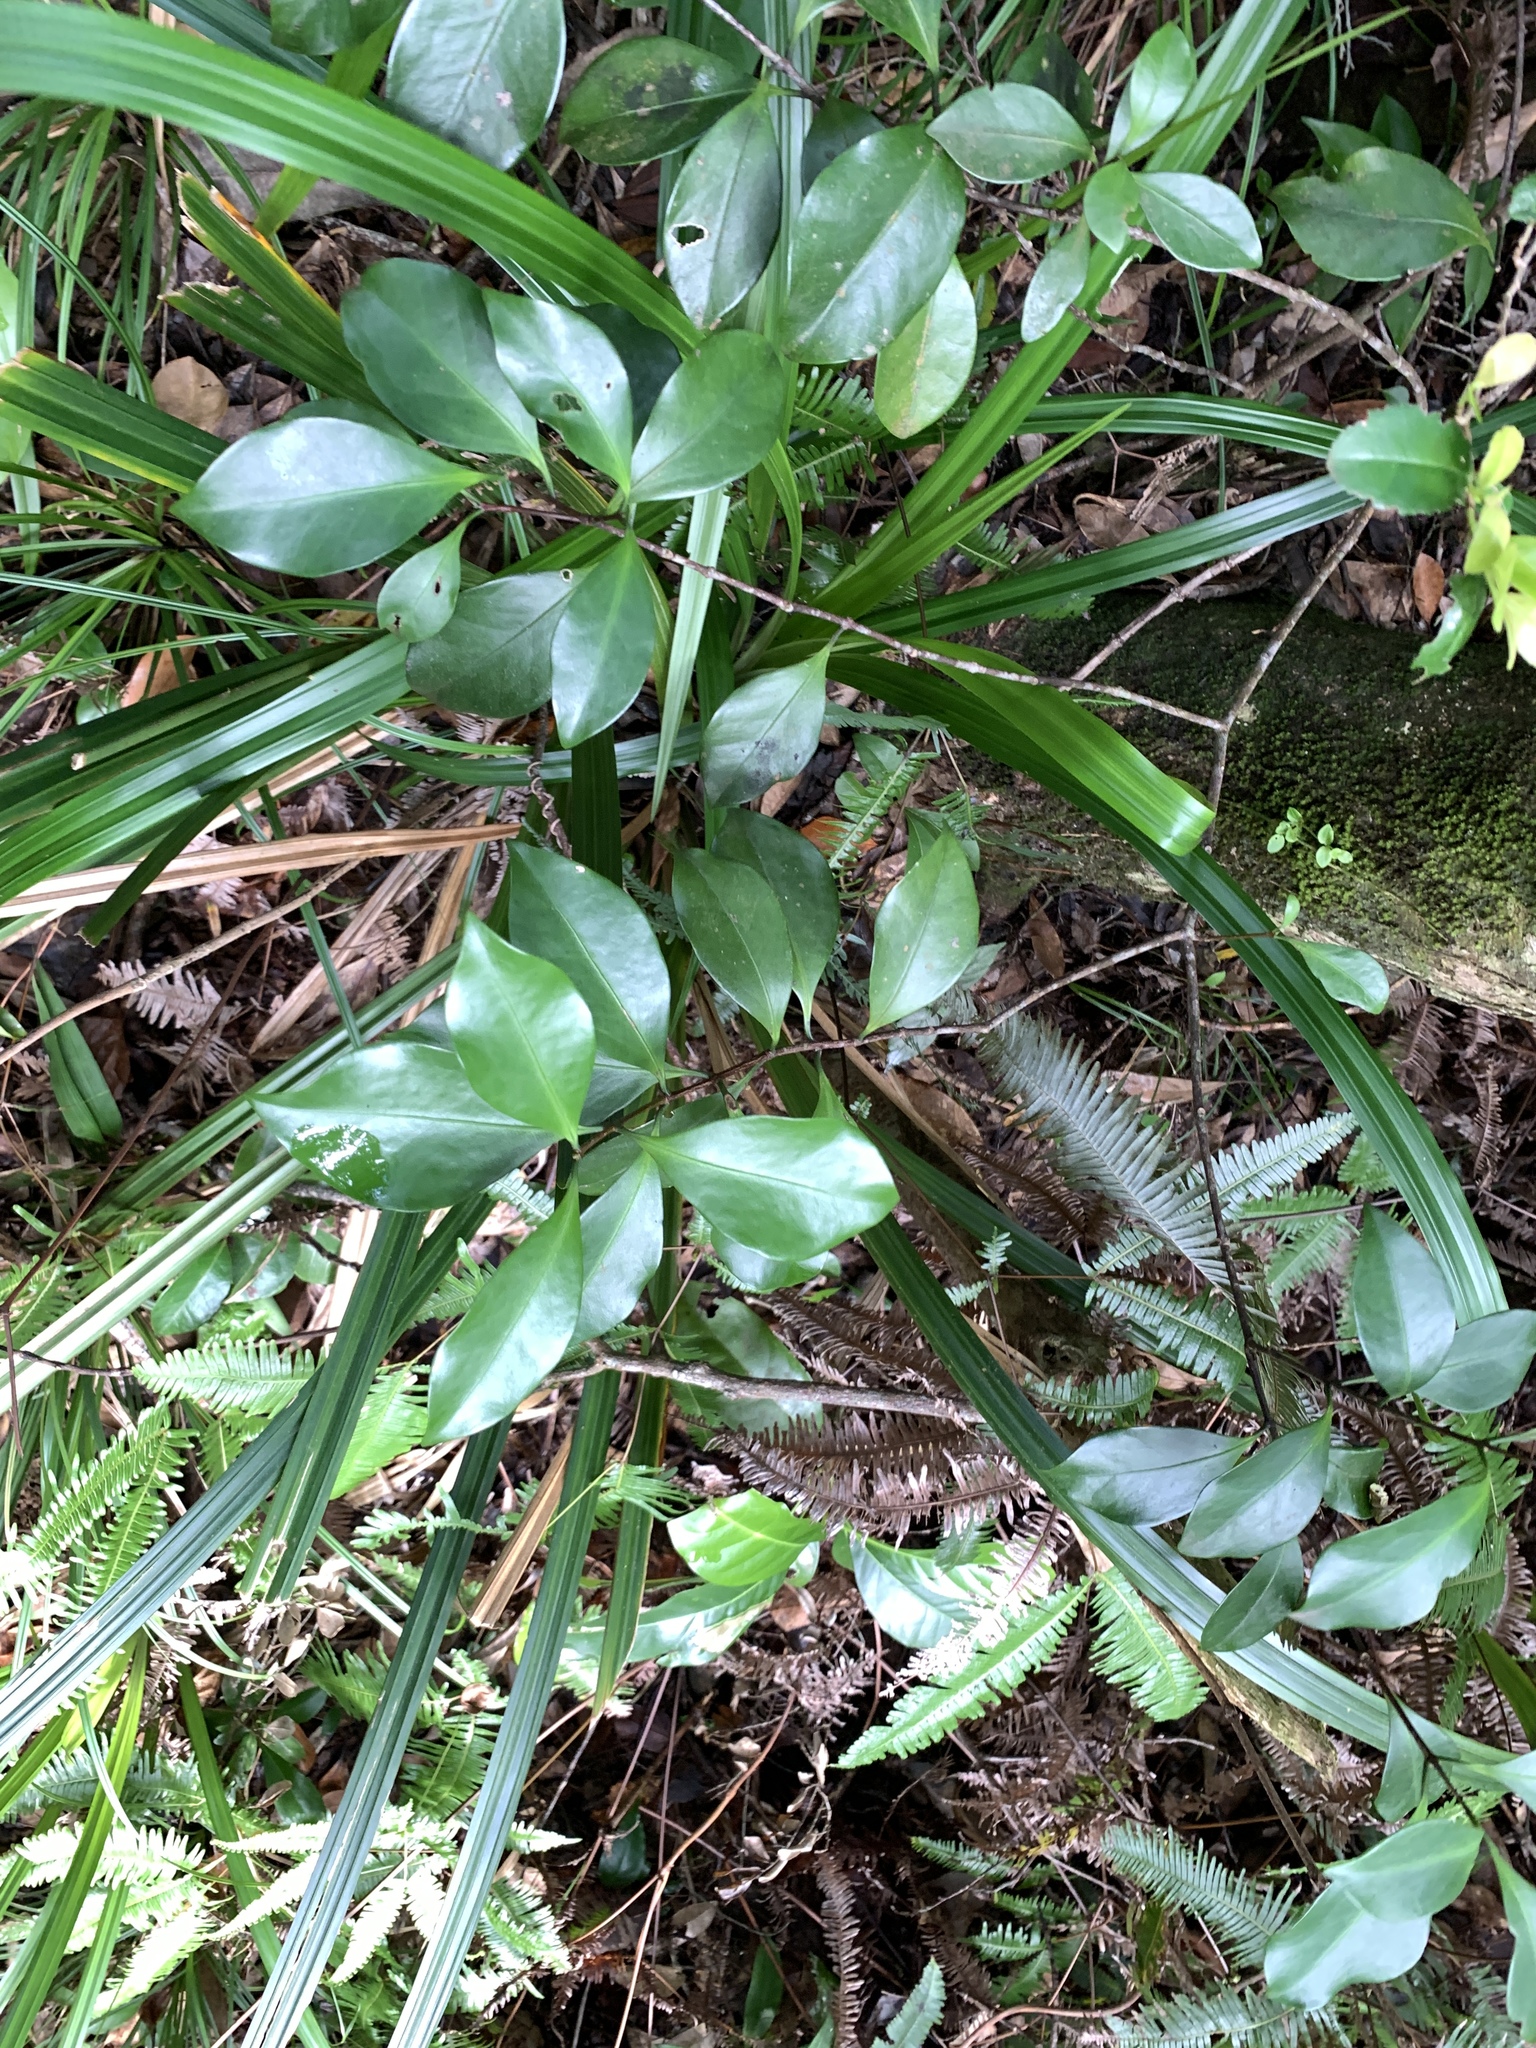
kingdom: Plantae
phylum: Tracheophyta
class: Magnoliopsida
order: Celastrales
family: Celastraceae
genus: Microtropis
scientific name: Microtropis japonica
